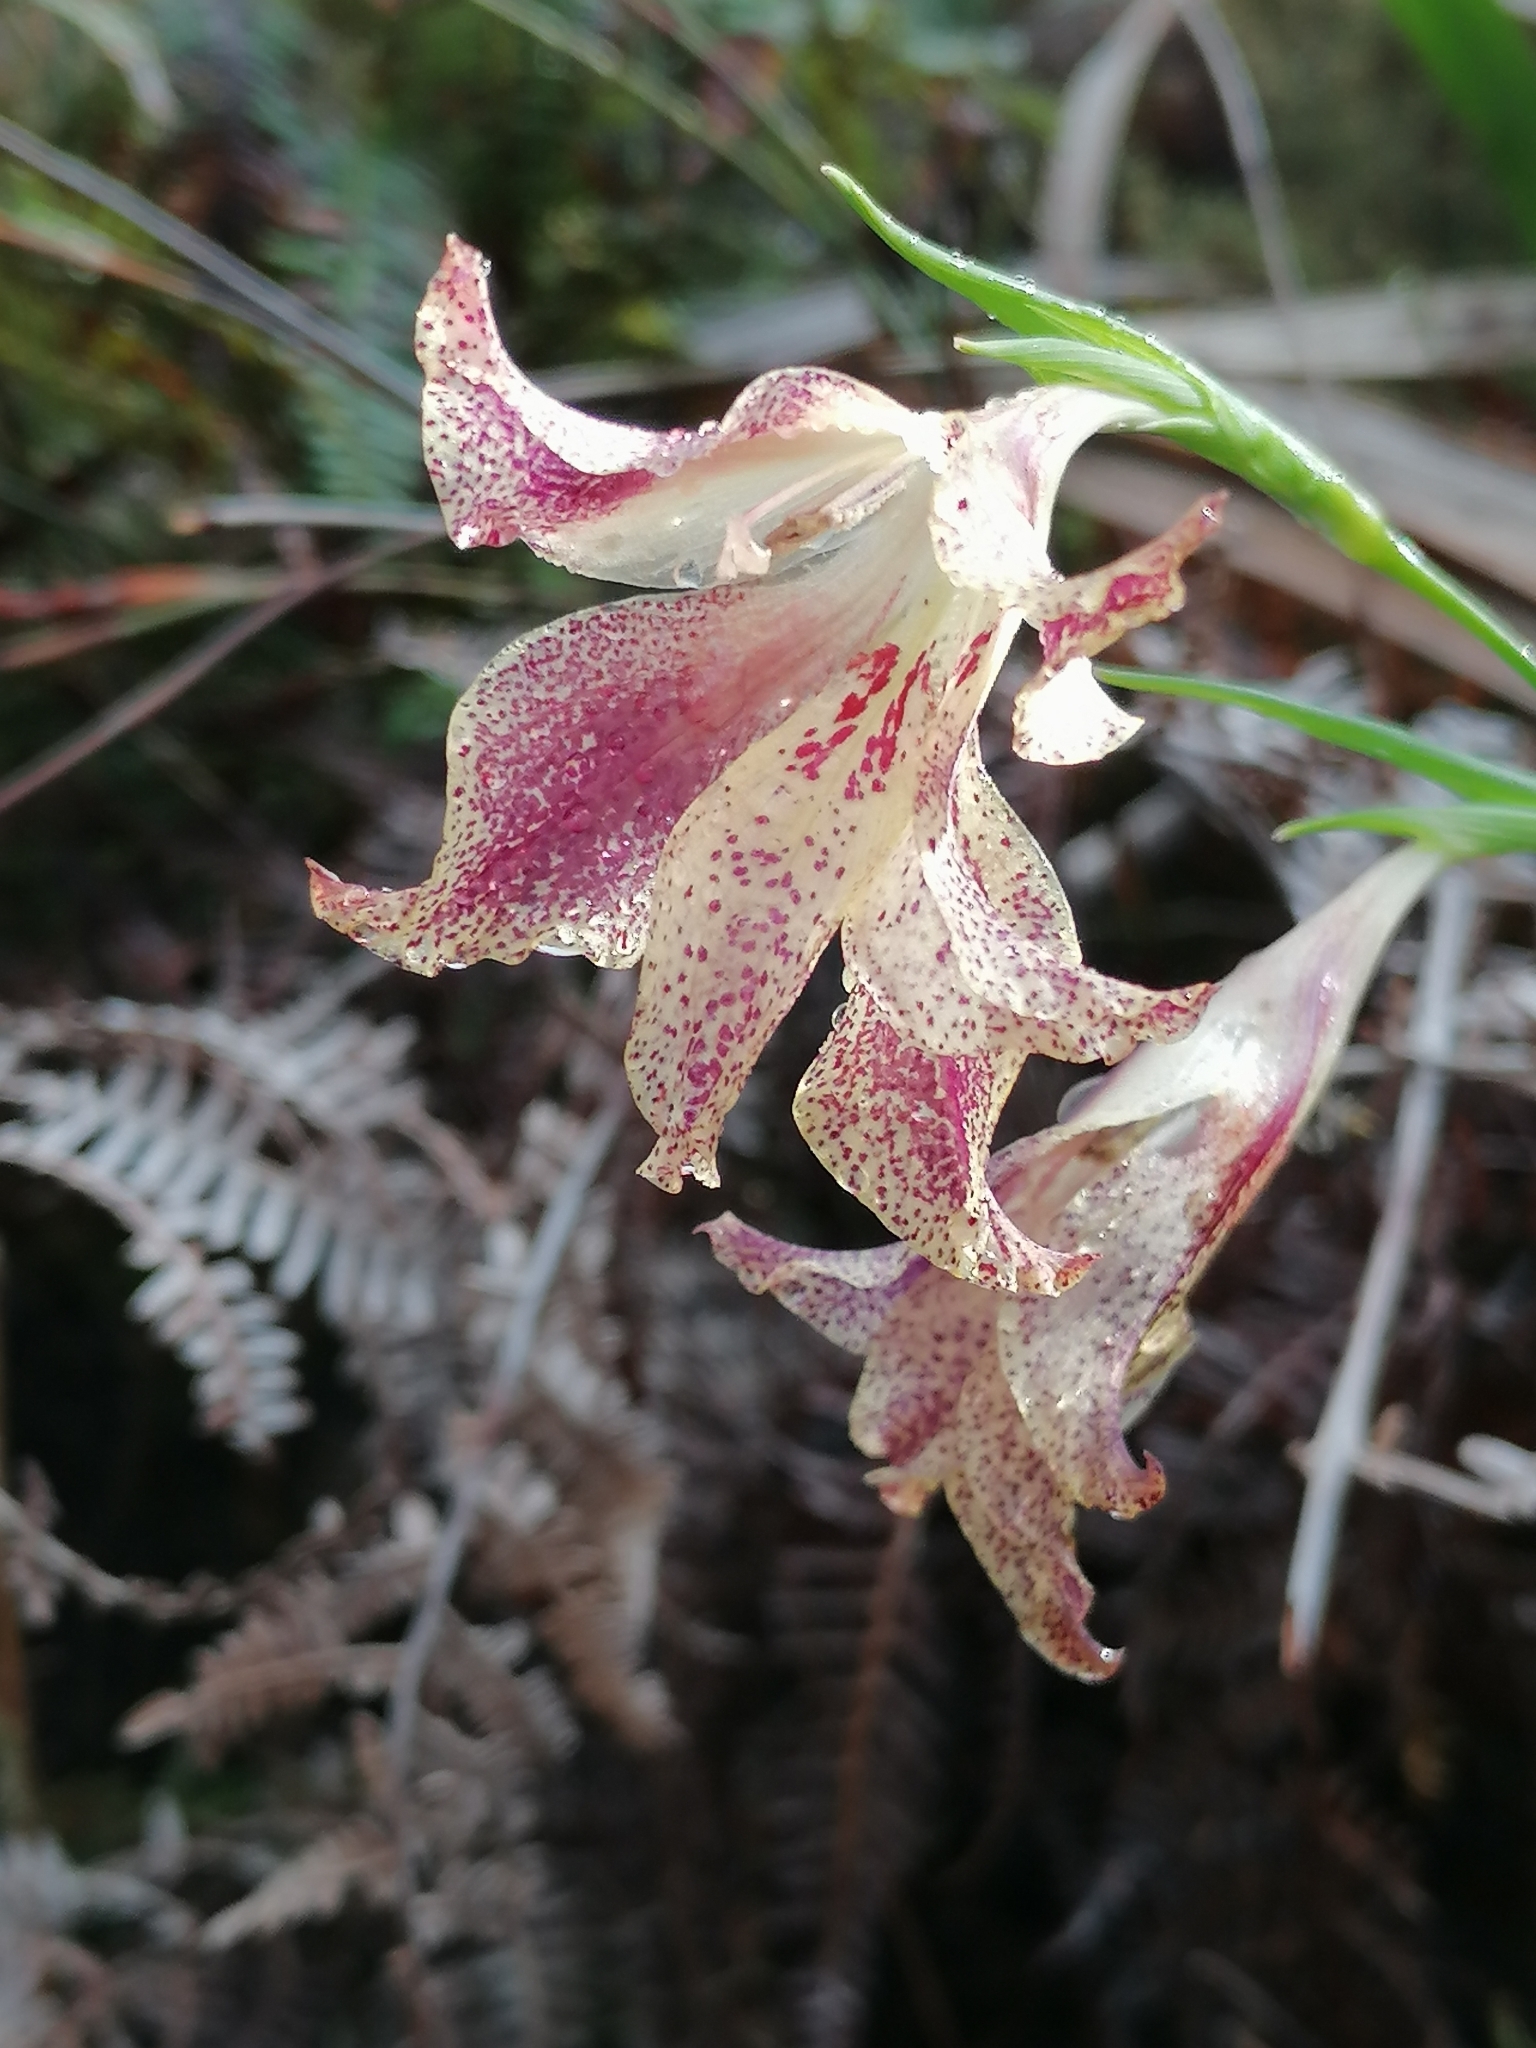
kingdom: Plantae
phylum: Tracheophyta
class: Liliopsida
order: Asparagales
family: Iridaceae
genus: Gladiolus
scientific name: Gladiolus maculatus
